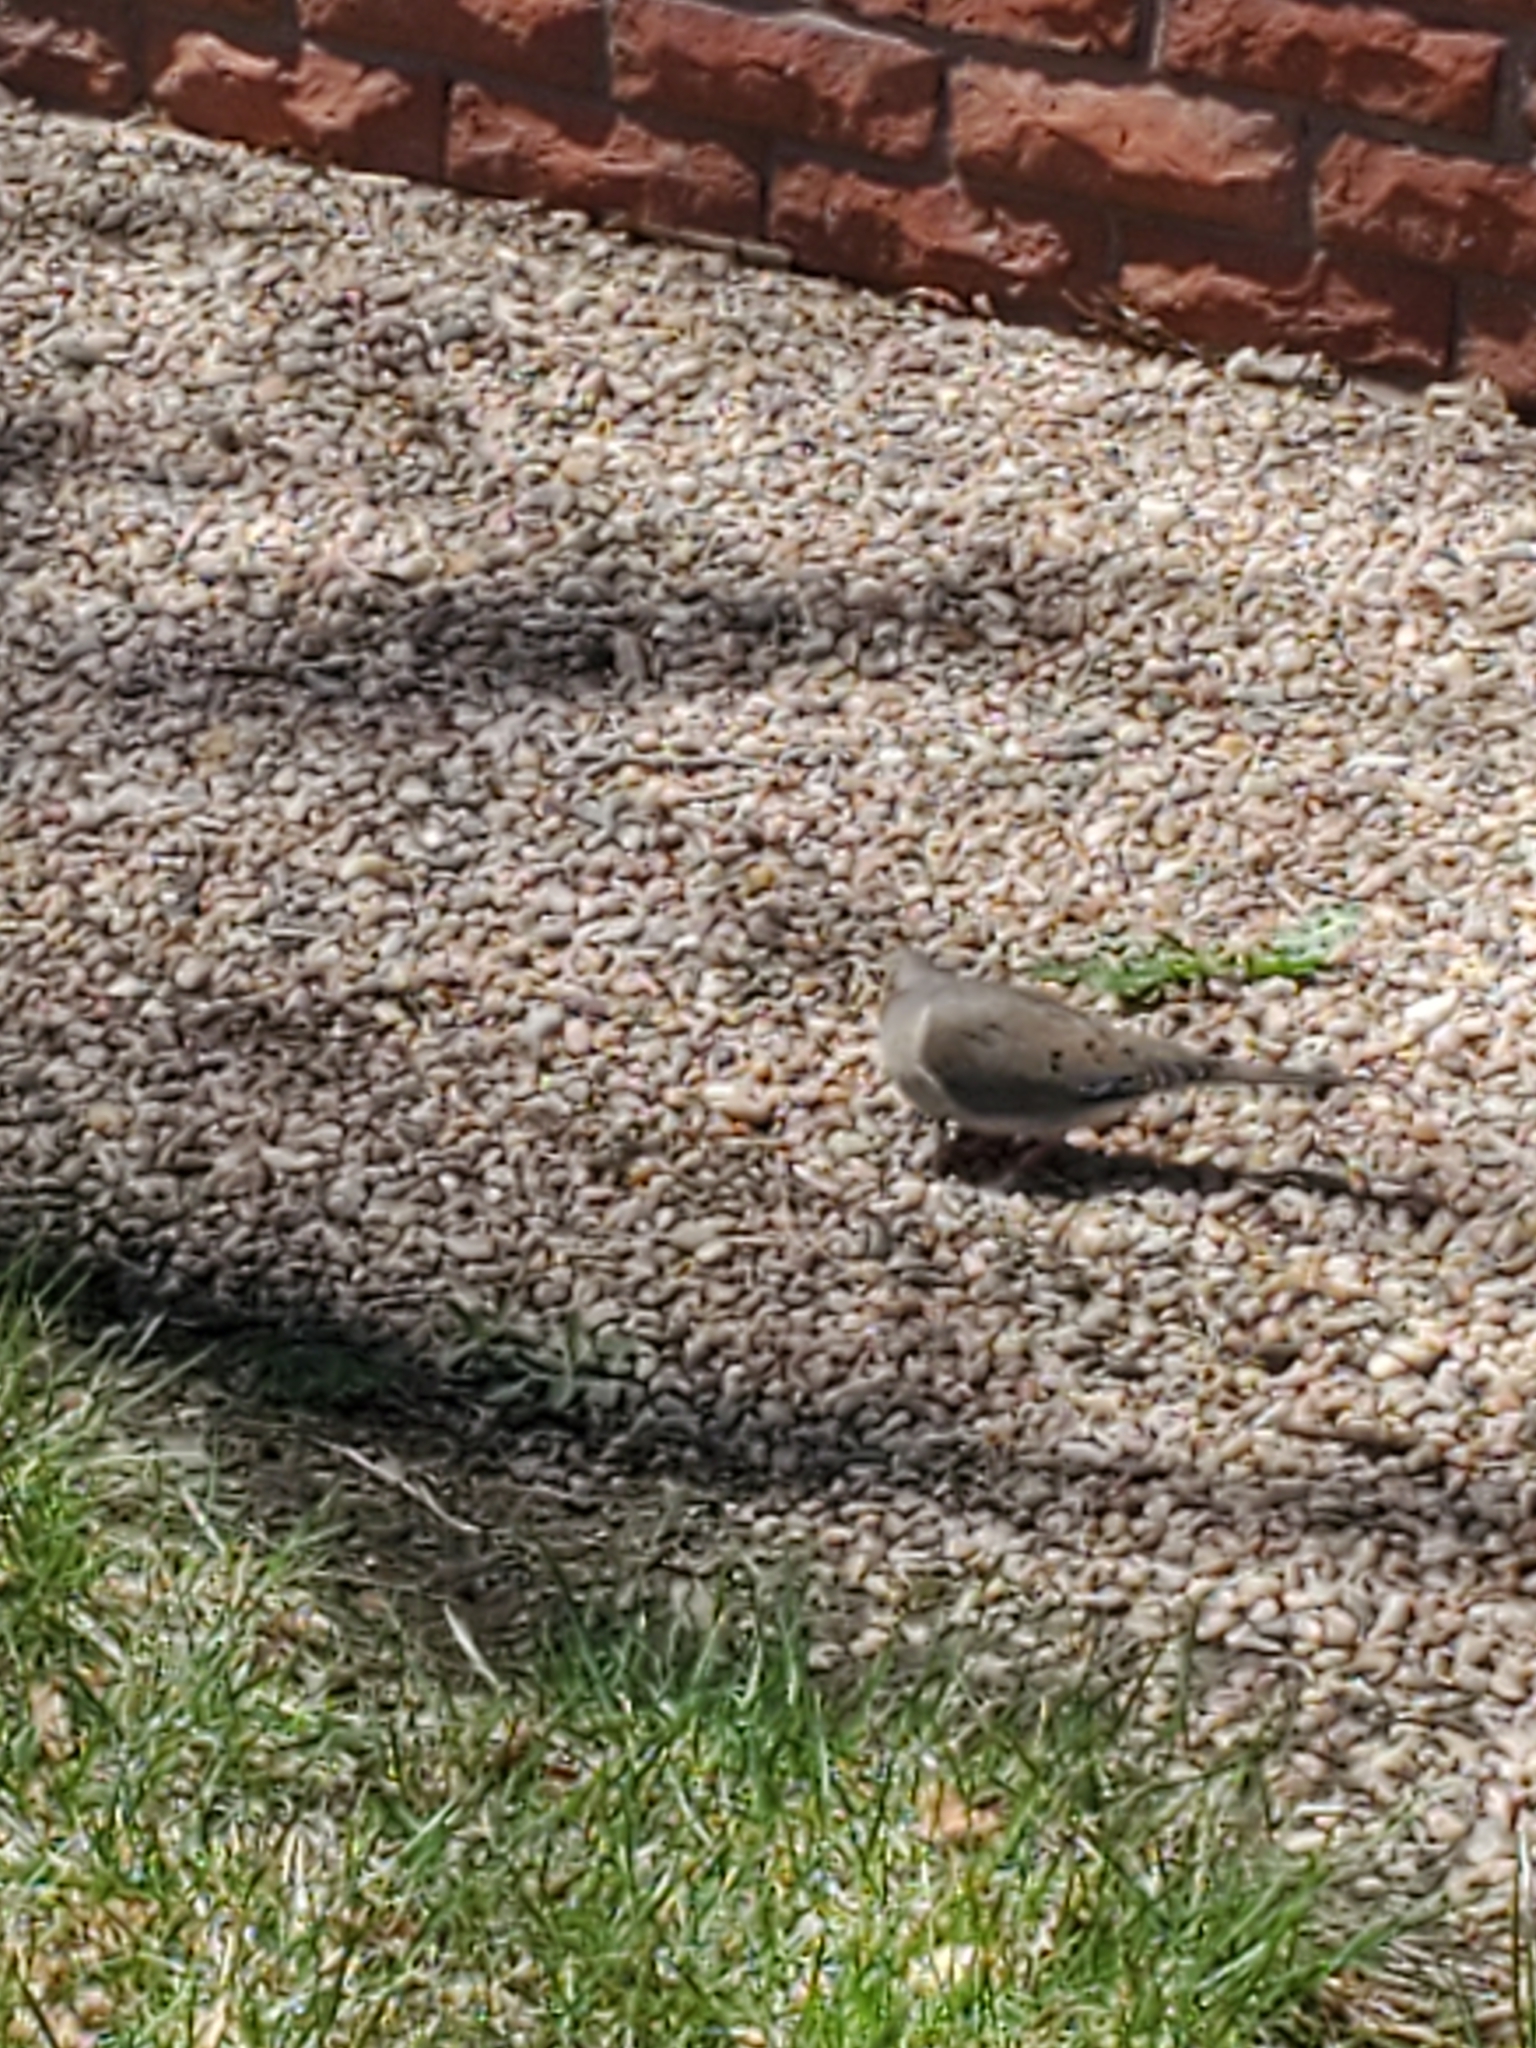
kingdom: Animalia
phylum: Chordata
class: Aves
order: Columbiformes
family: Columbidae
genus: Zenaida
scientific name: Zenaida macroura
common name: Mourning dove
